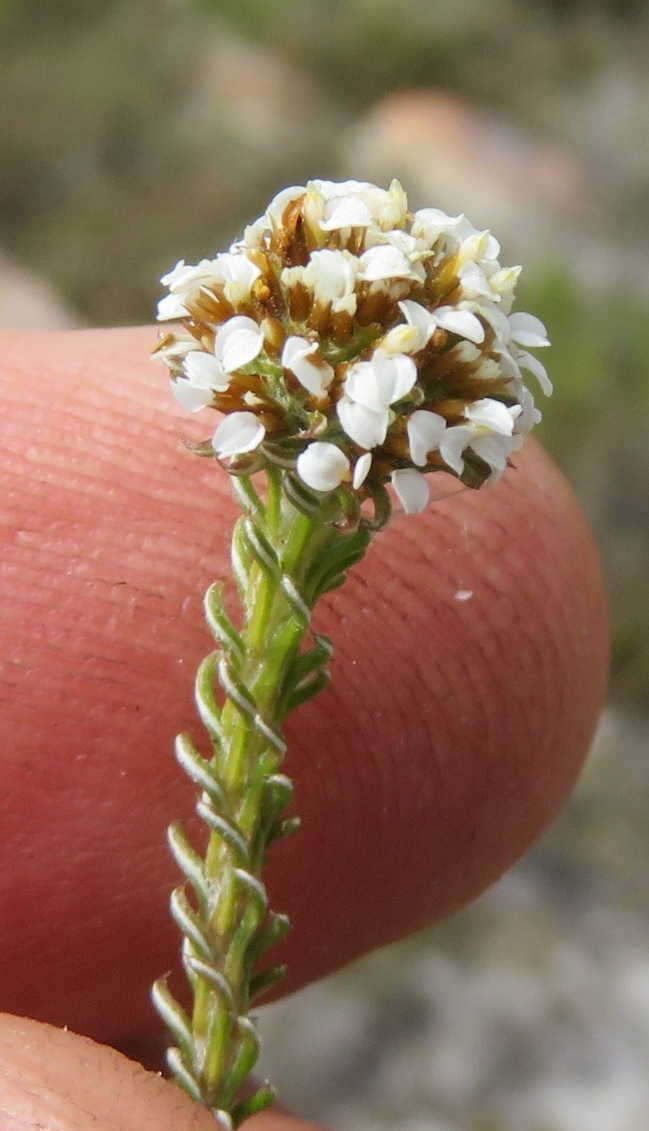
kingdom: Plantae
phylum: Tracheophyta
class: Magnoliopsida
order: Asterales
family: Asteraceae
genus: Disparago
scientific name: Disparago anomala
